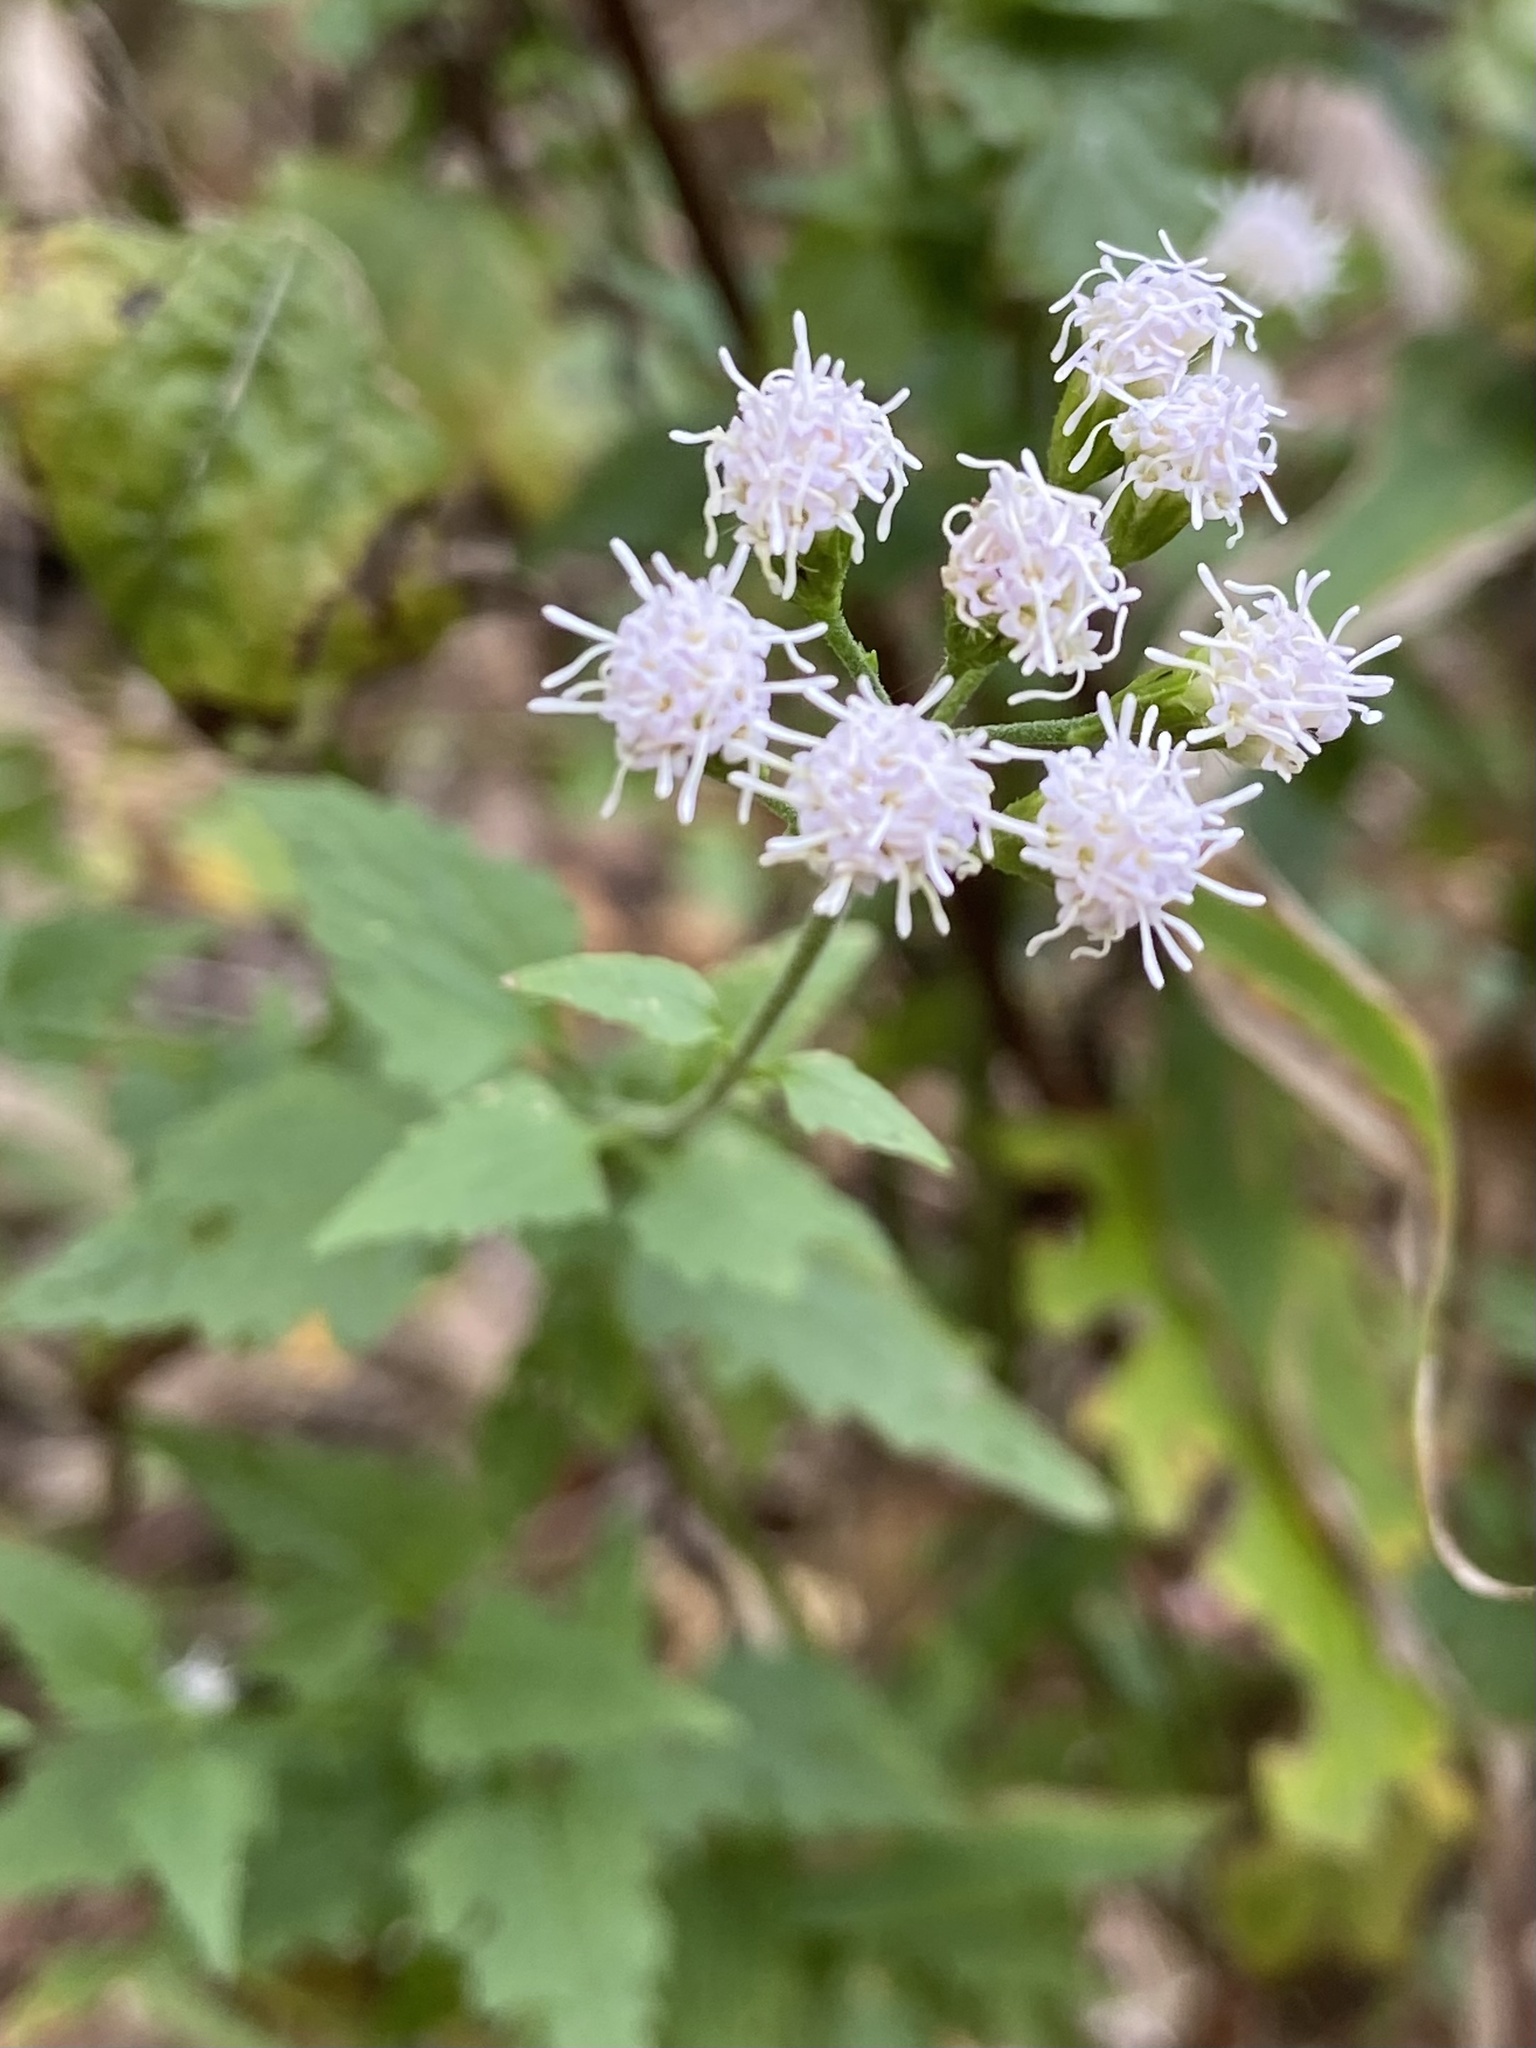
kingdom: Plantae
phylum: Tracheophyta
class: Magnoliopsida
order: Asterales
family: Asteraceae
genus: Fleischmannia
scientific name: Fleischmannia incarnata
